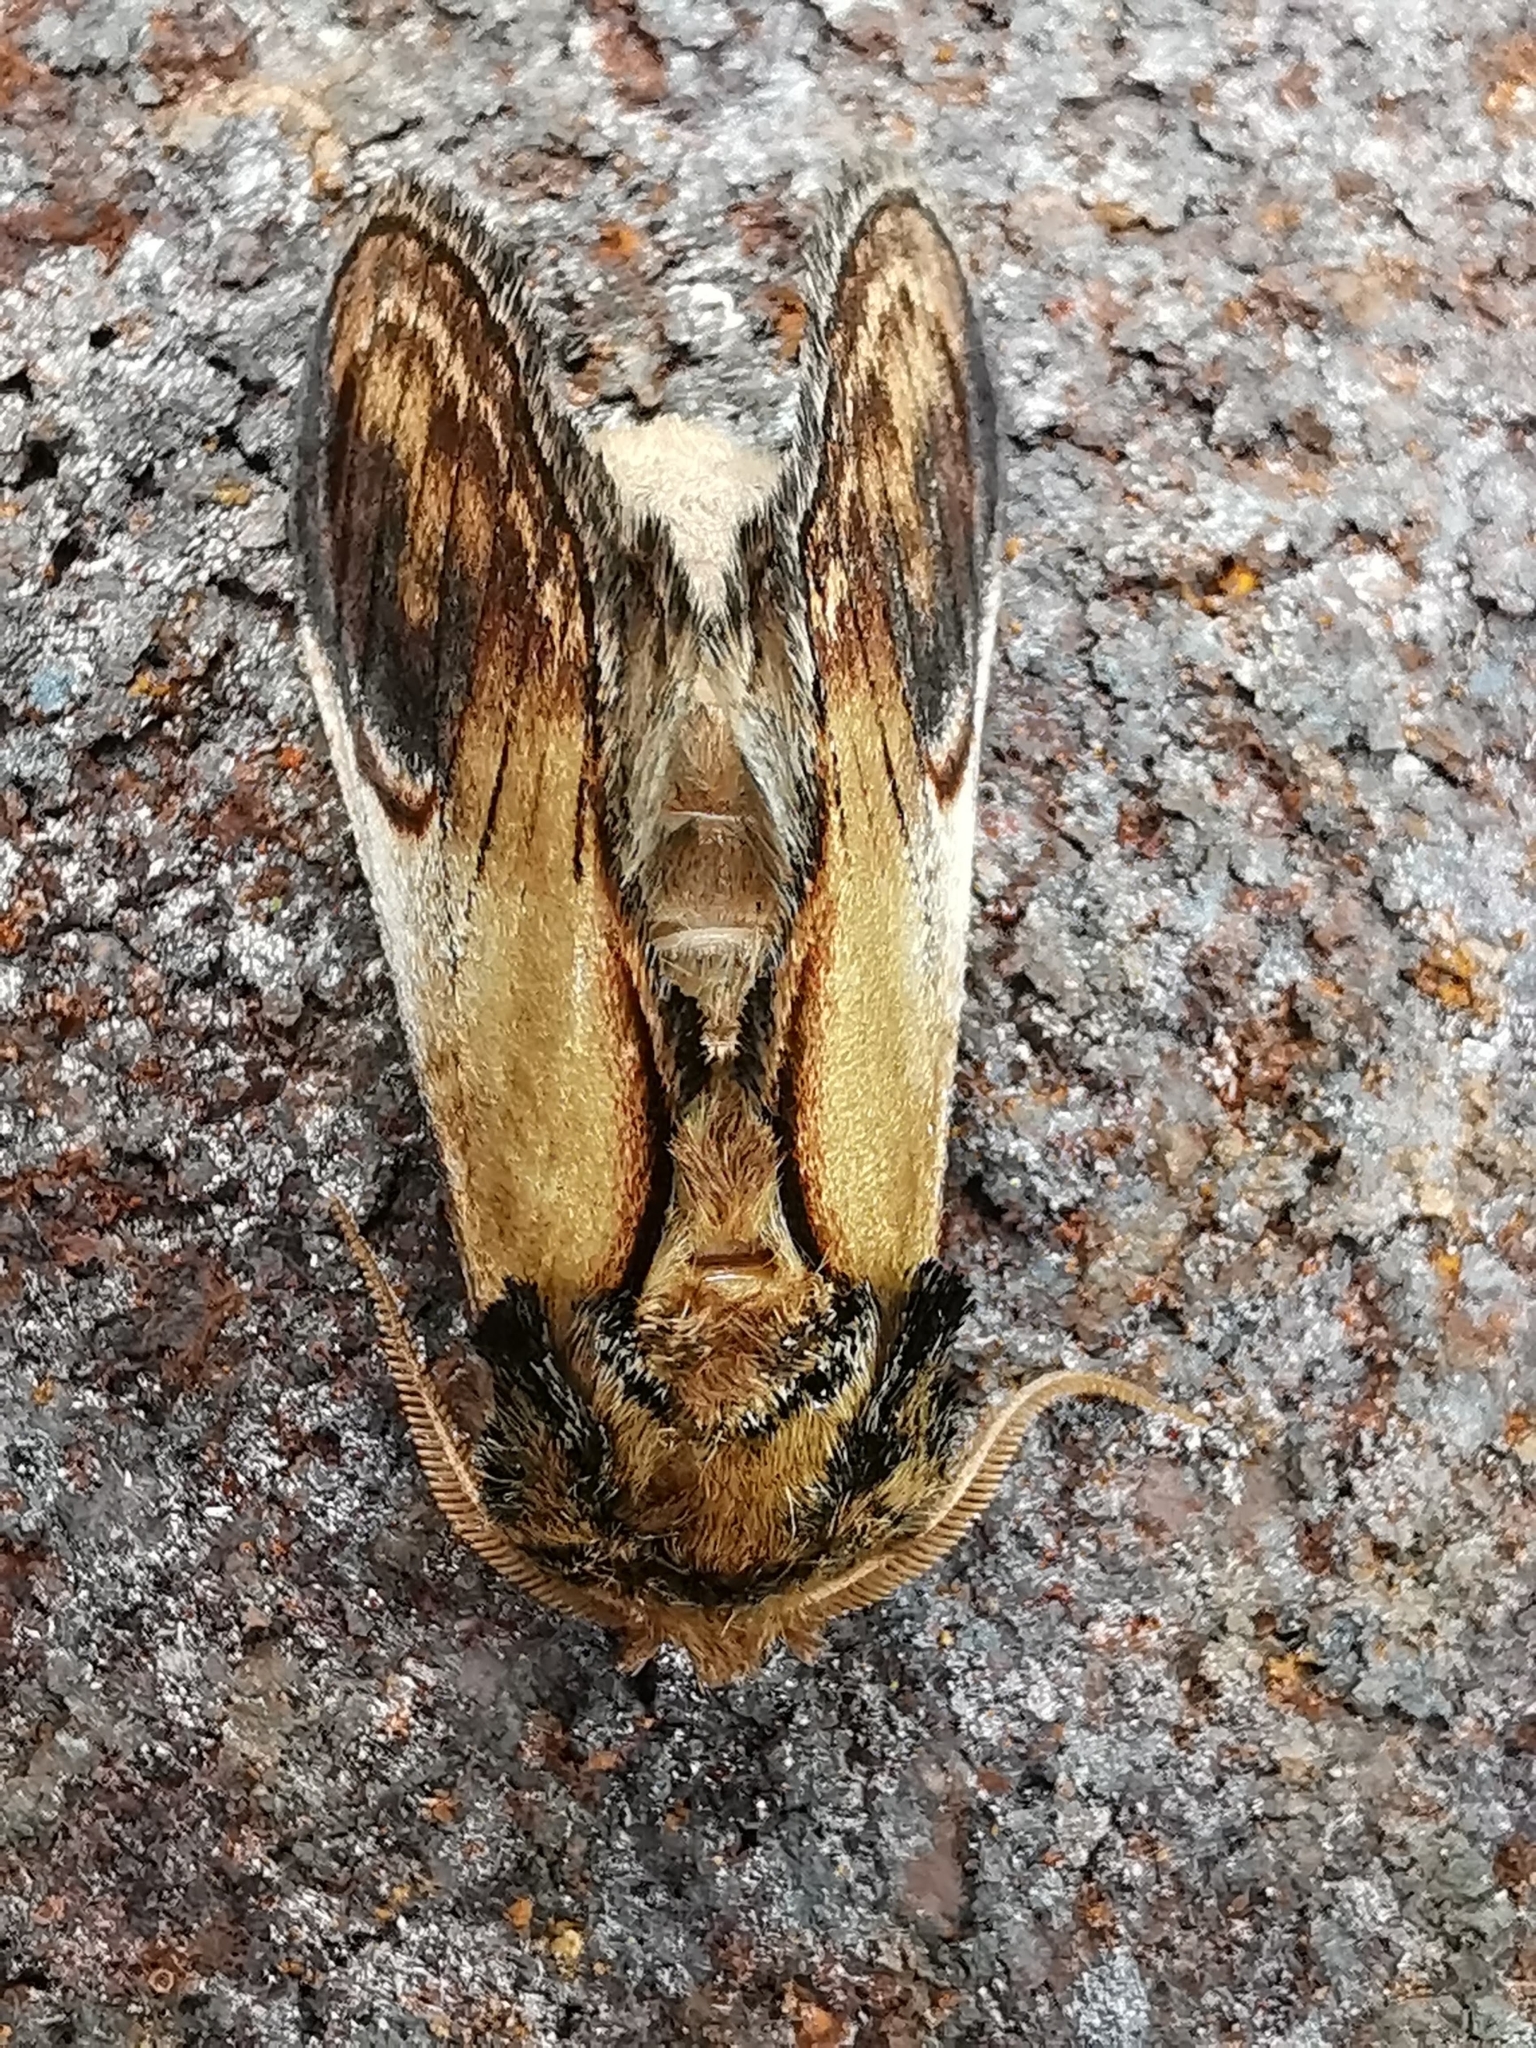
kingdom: Animalia
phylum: Arthropoda
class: Insecta
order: Lepidoptera
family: Notodontidae
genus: Notodonta
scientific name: Notodonta ziczac
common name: Pebble prominent
